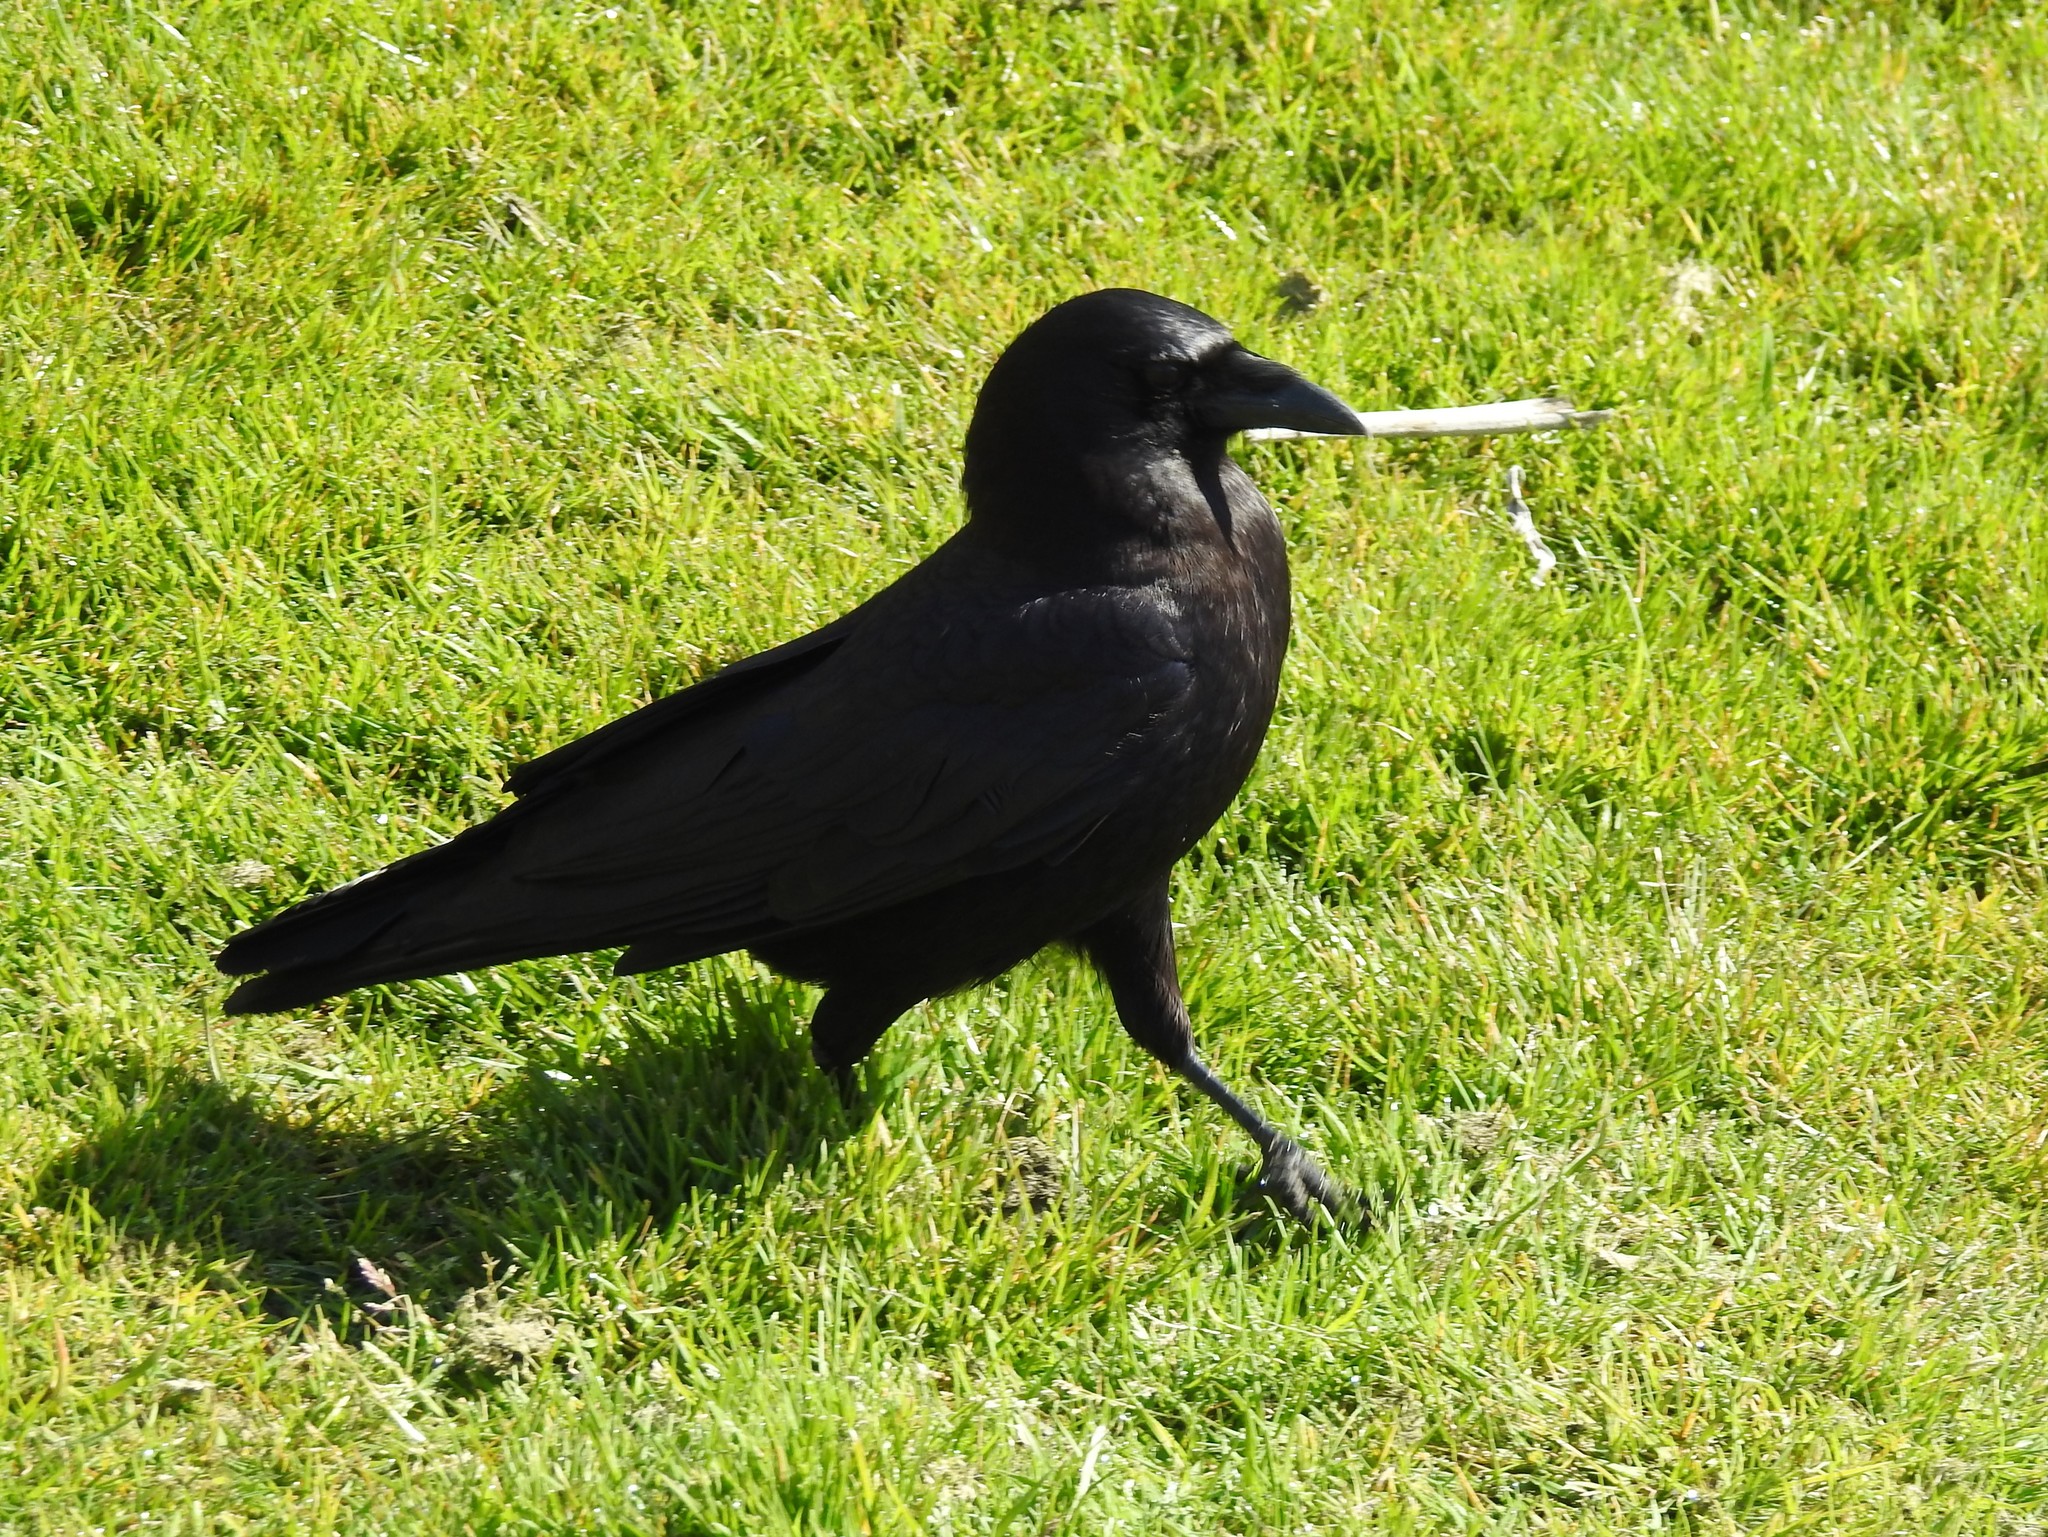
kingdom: Animalia
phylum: Chordata
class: Aves
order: Passeriformes
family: Corvidae
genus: Corvus
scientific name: Corvus brachyrhynchos
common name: American crow
